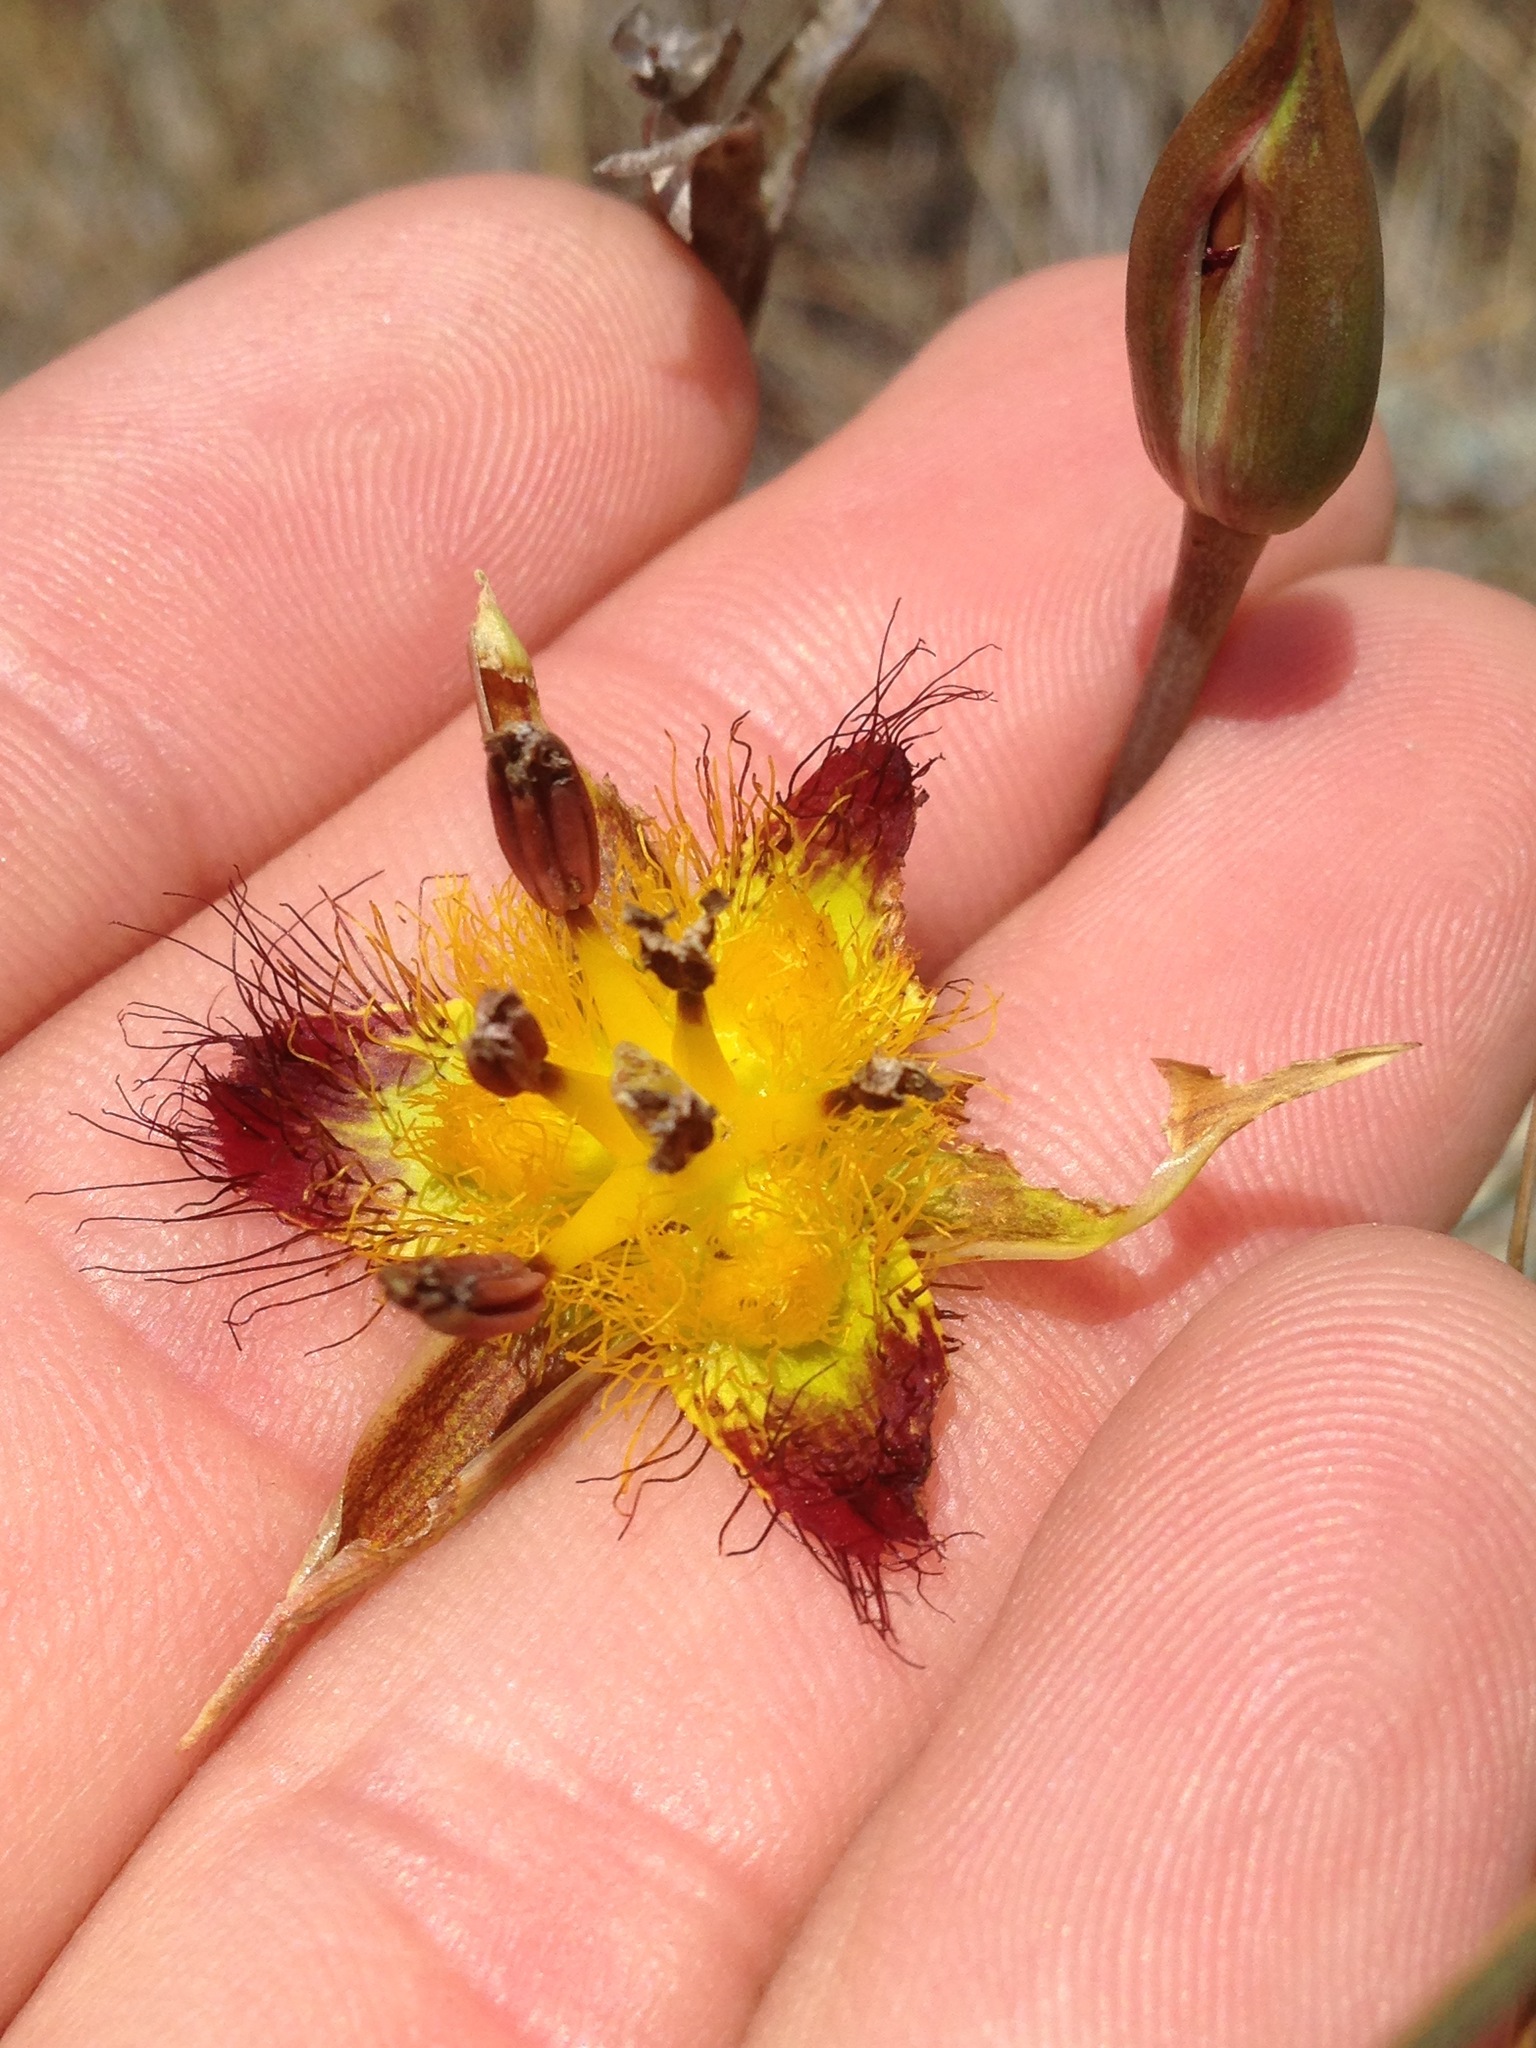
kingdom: Plantae
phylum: Tracheophyta
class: Liliopsida
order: Liliales
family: Liliaceae
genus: Calochortus
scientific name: Calochortus obispoensis
